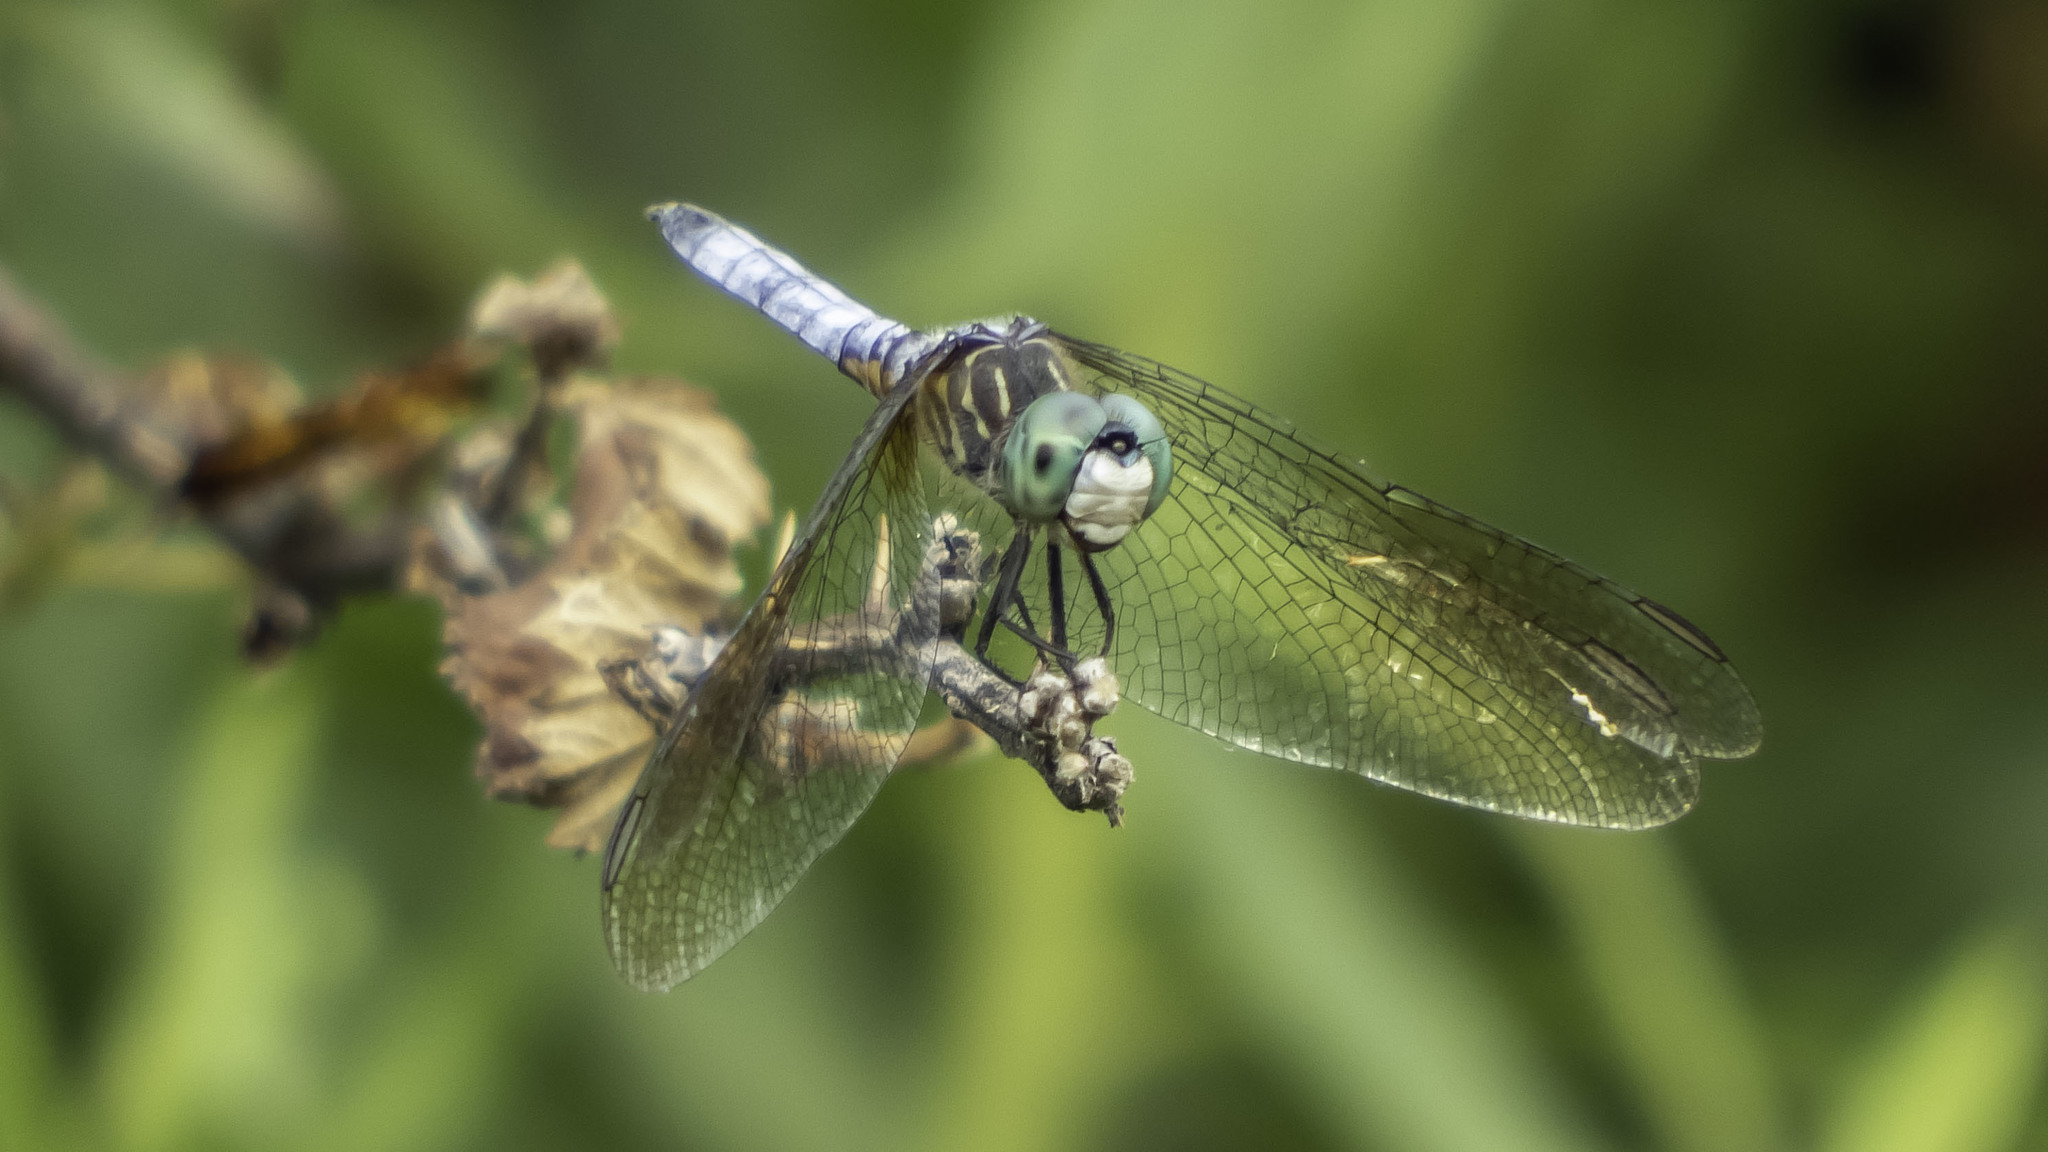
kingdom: Animalia
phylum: Arthropoda
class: Insecta
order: Odonata
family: Libellulidae
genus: Pachydiplax
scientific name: Pachydiplax longipennis
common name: Blue dasher
